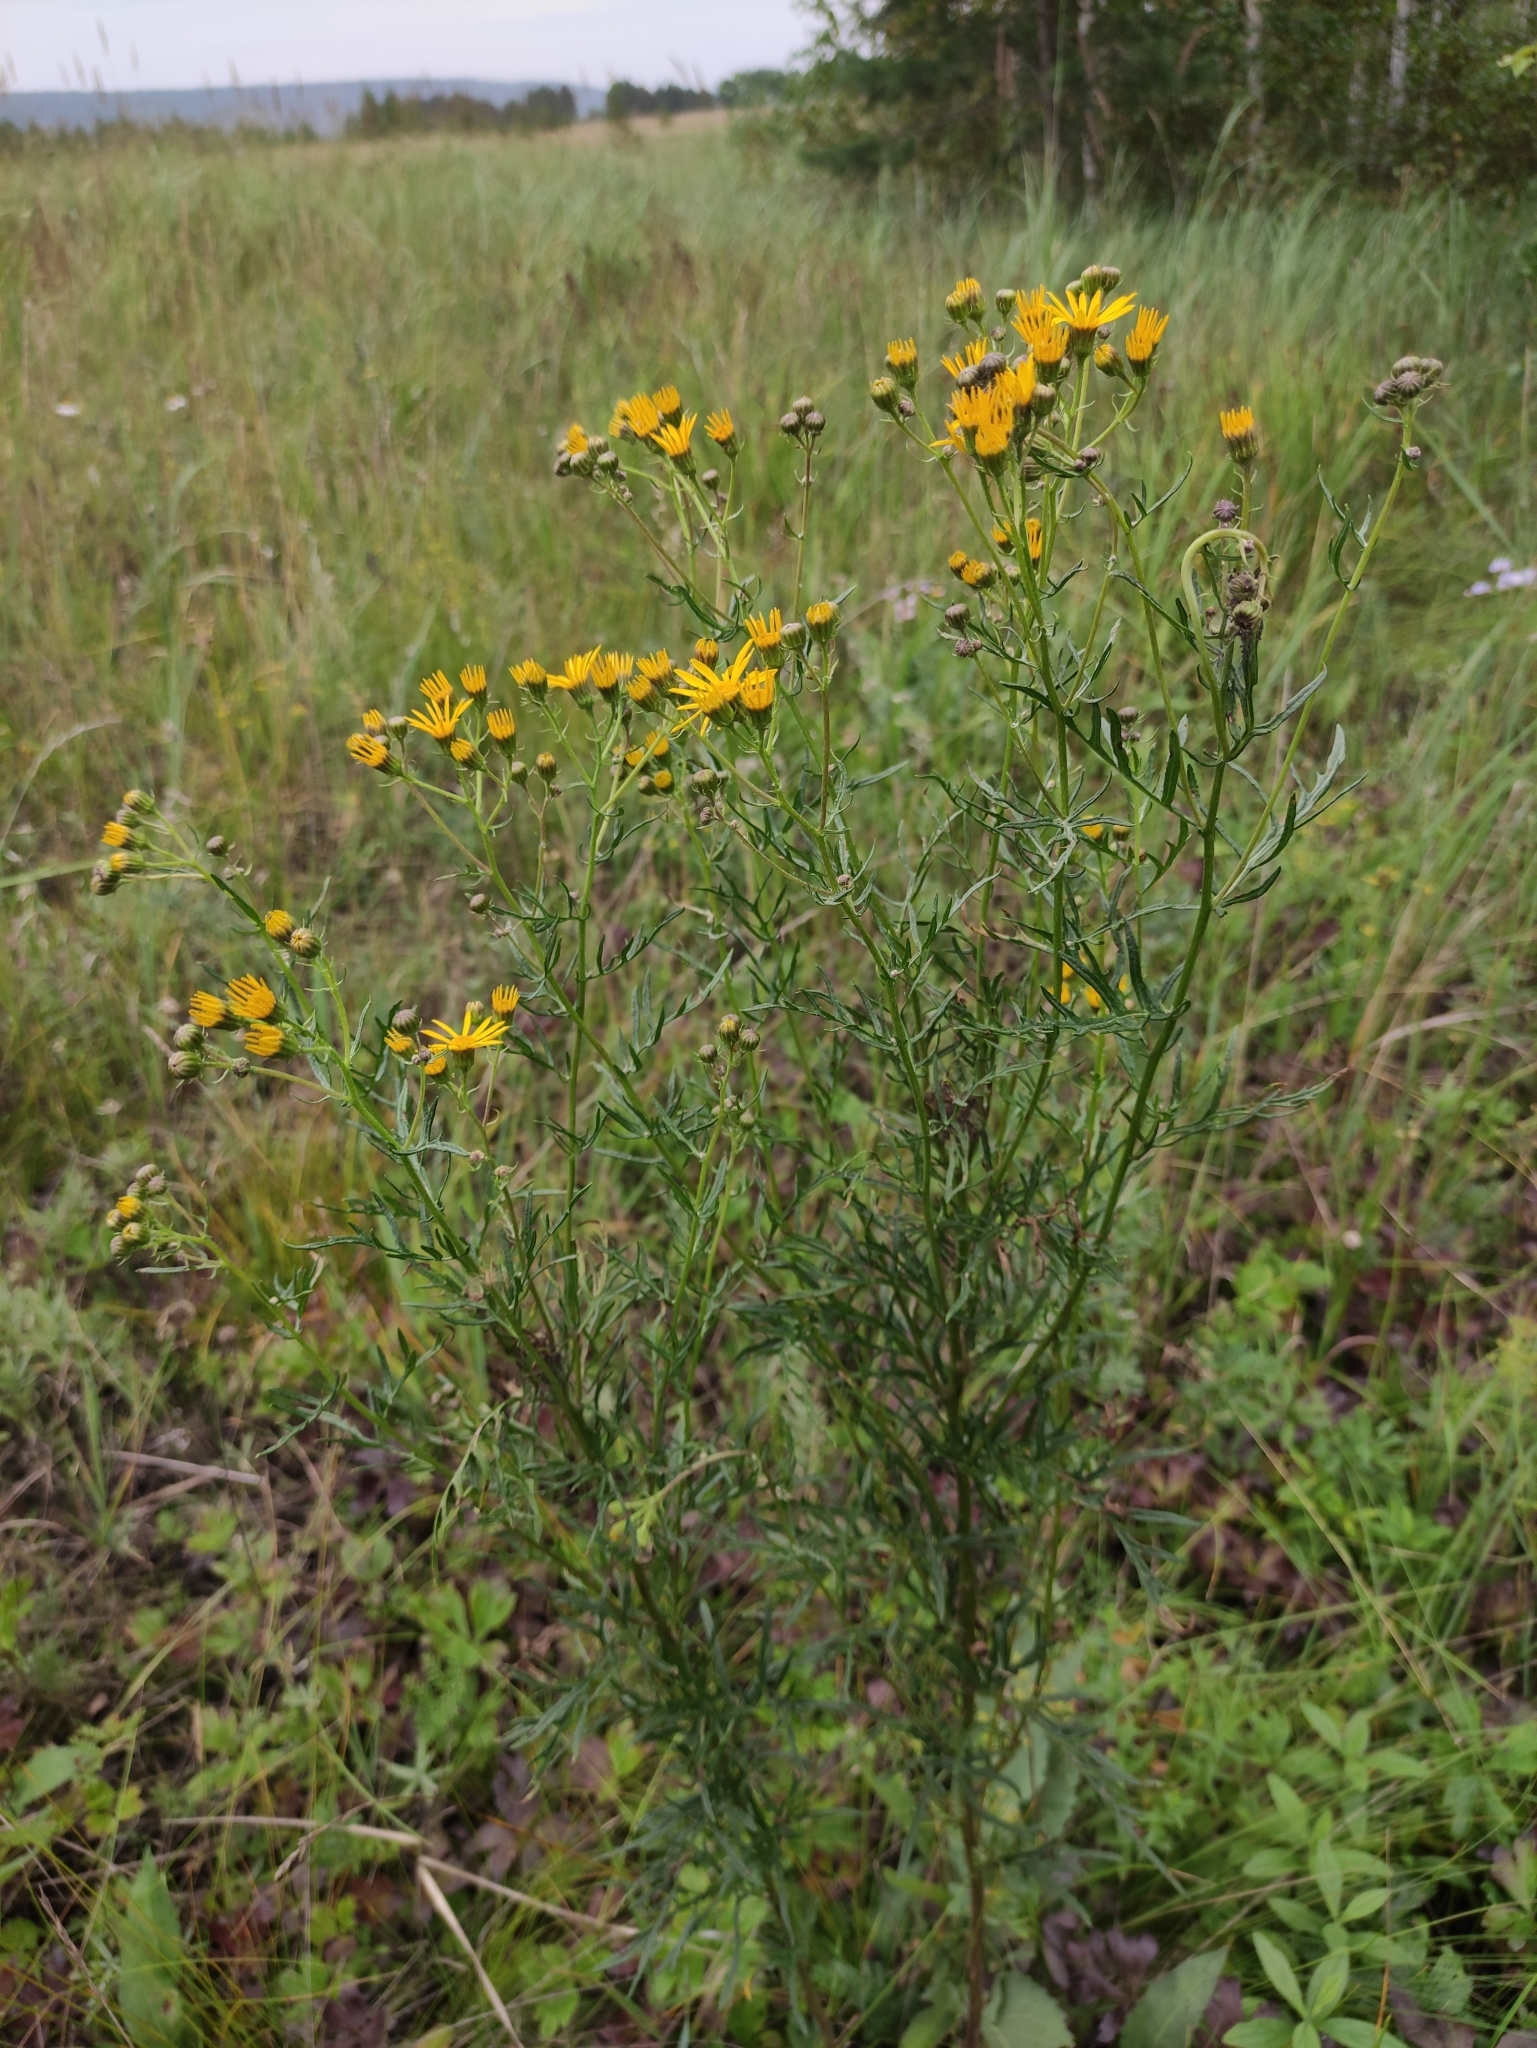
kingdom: Plantae
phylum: Tracheophyta
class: Magnoliopsida
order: Asterales
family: Asteraceae
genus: Jacobaea
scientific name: Jacobaea erucifolia
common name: Hoary ragwort
